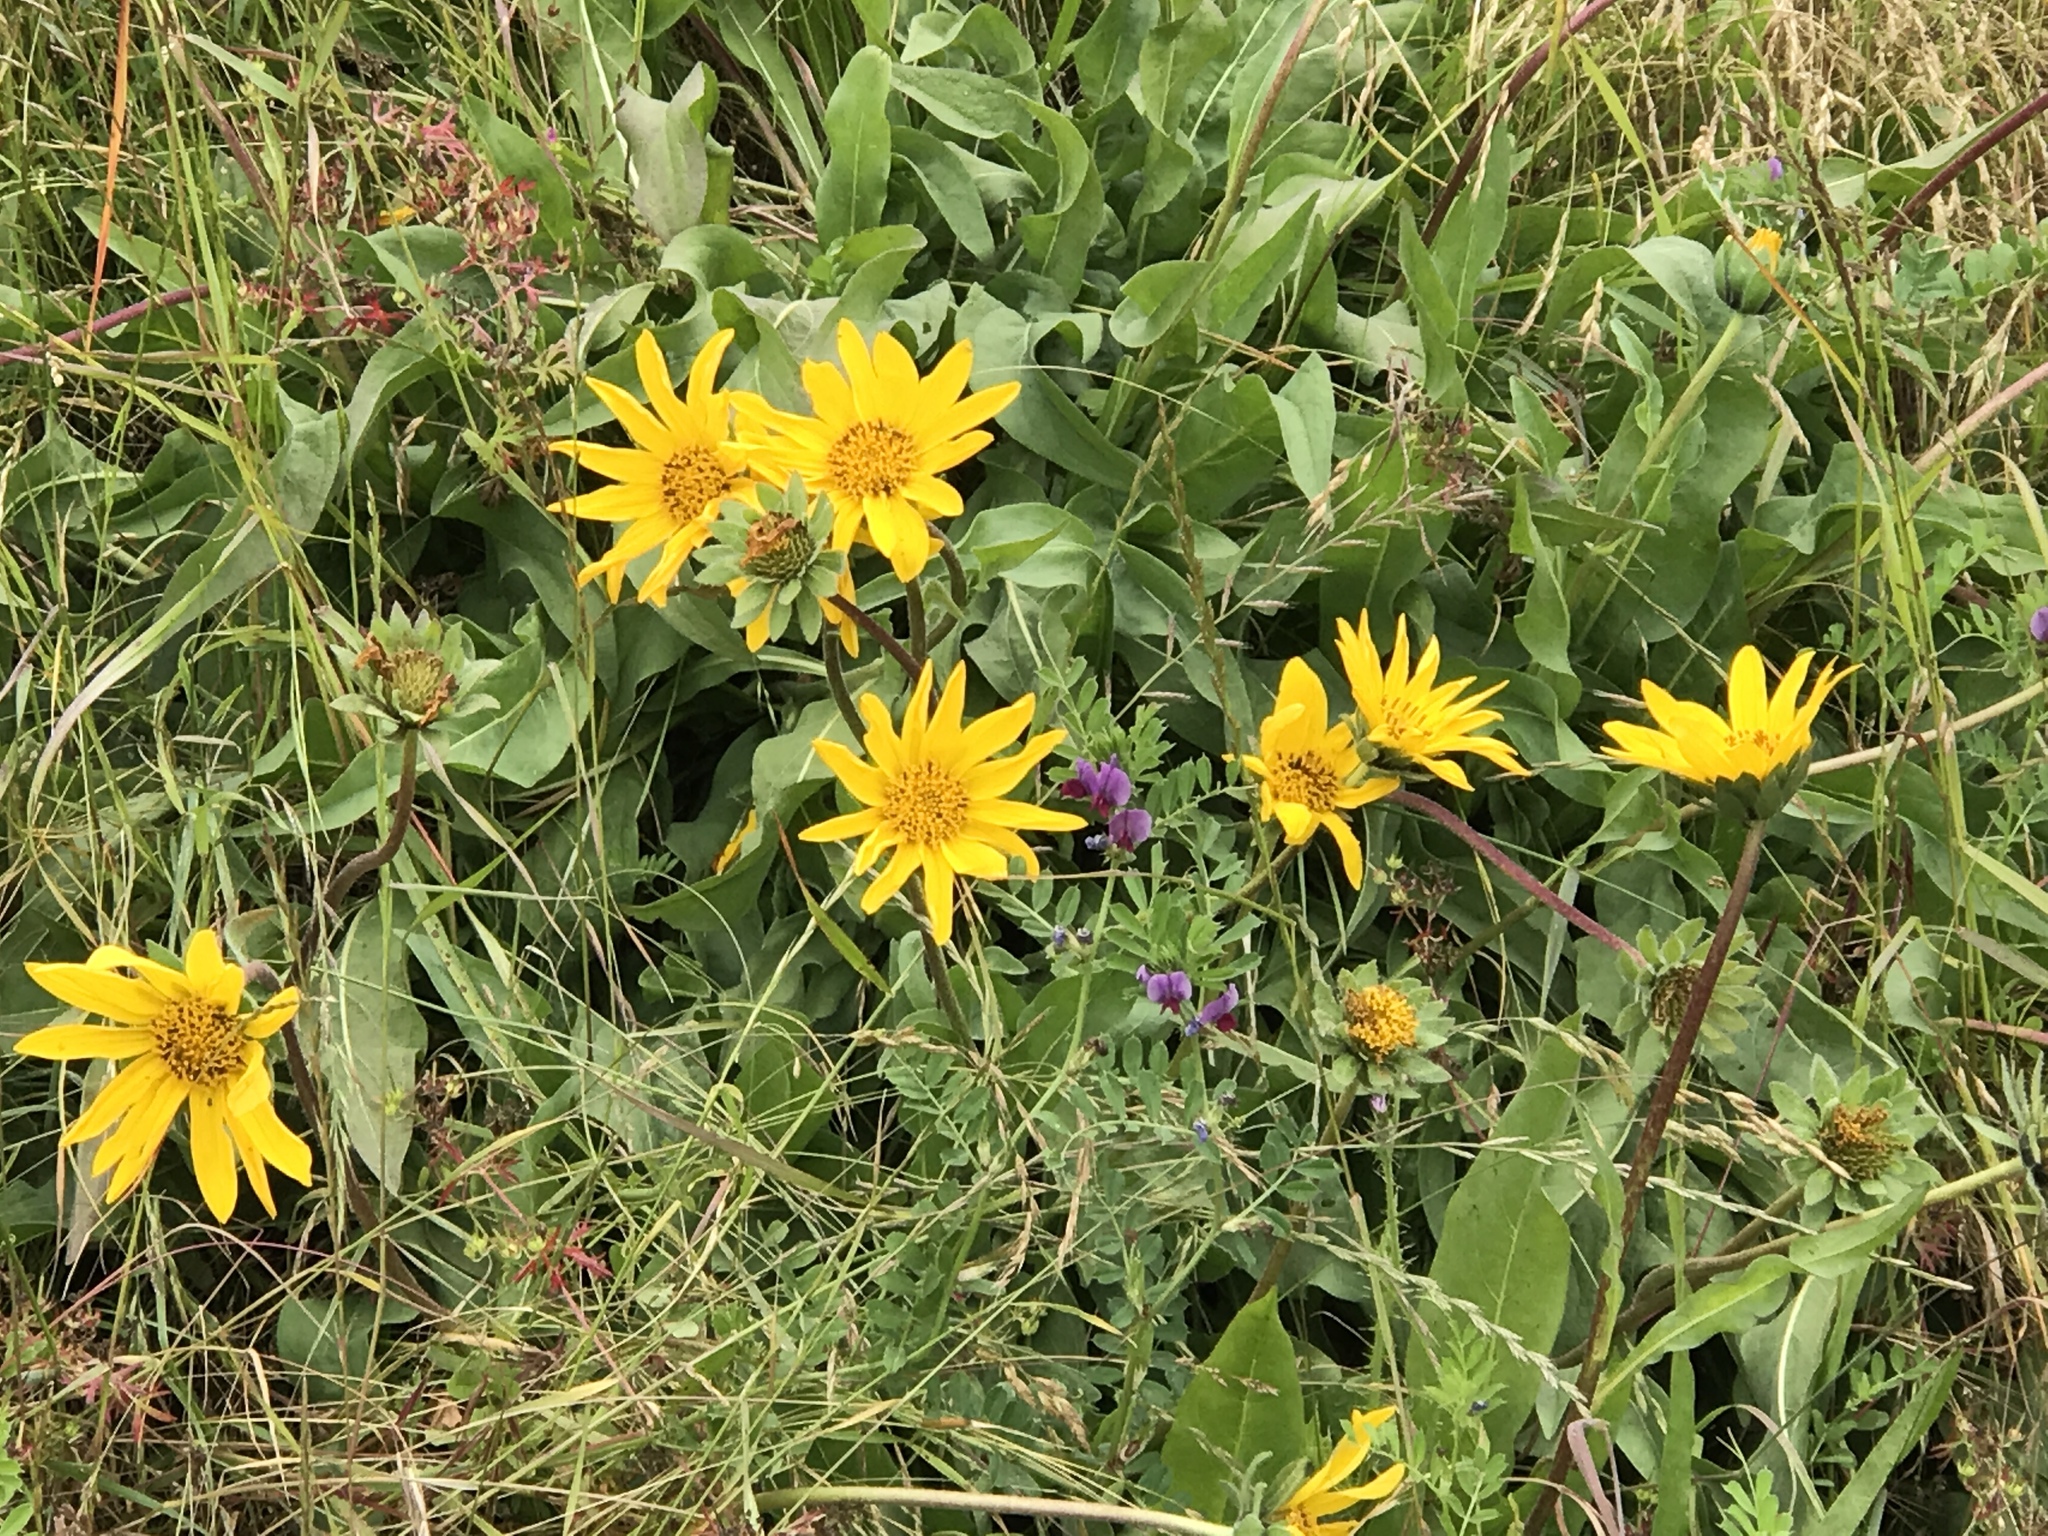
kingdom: Plantae
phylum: Tracheophyta
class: Magnoliopsida
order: Asterales
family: Asteraceae
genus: Wyethia
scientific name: Wyethia angustifolia
